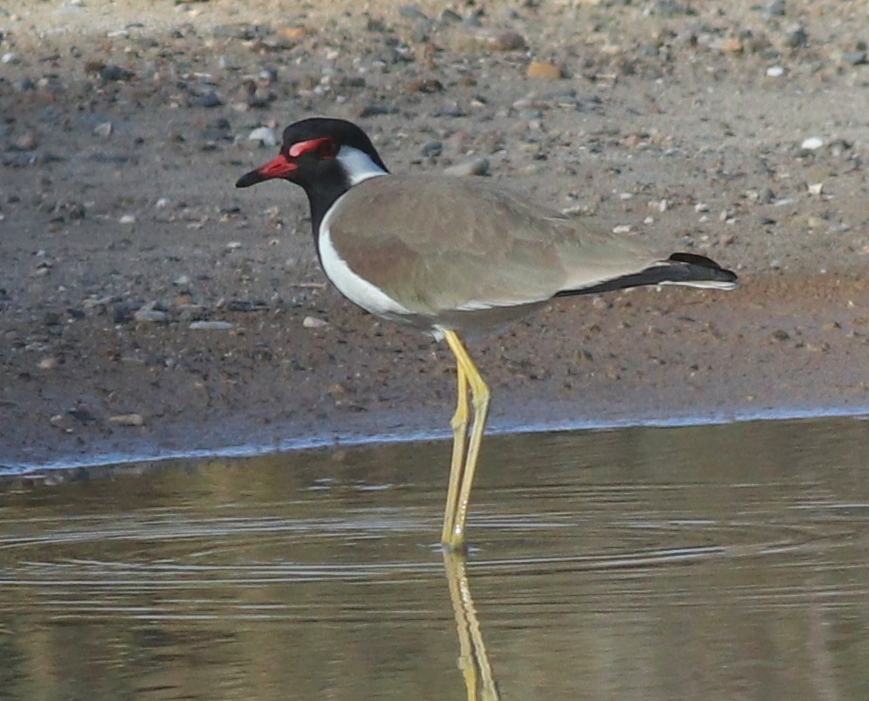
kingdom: Animalia
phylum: Chordata
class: Aves
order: Charadriiformes
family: Charadriidae
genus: Vanellus
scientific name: Vanellus indicus
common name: Red-wattled lapwing
